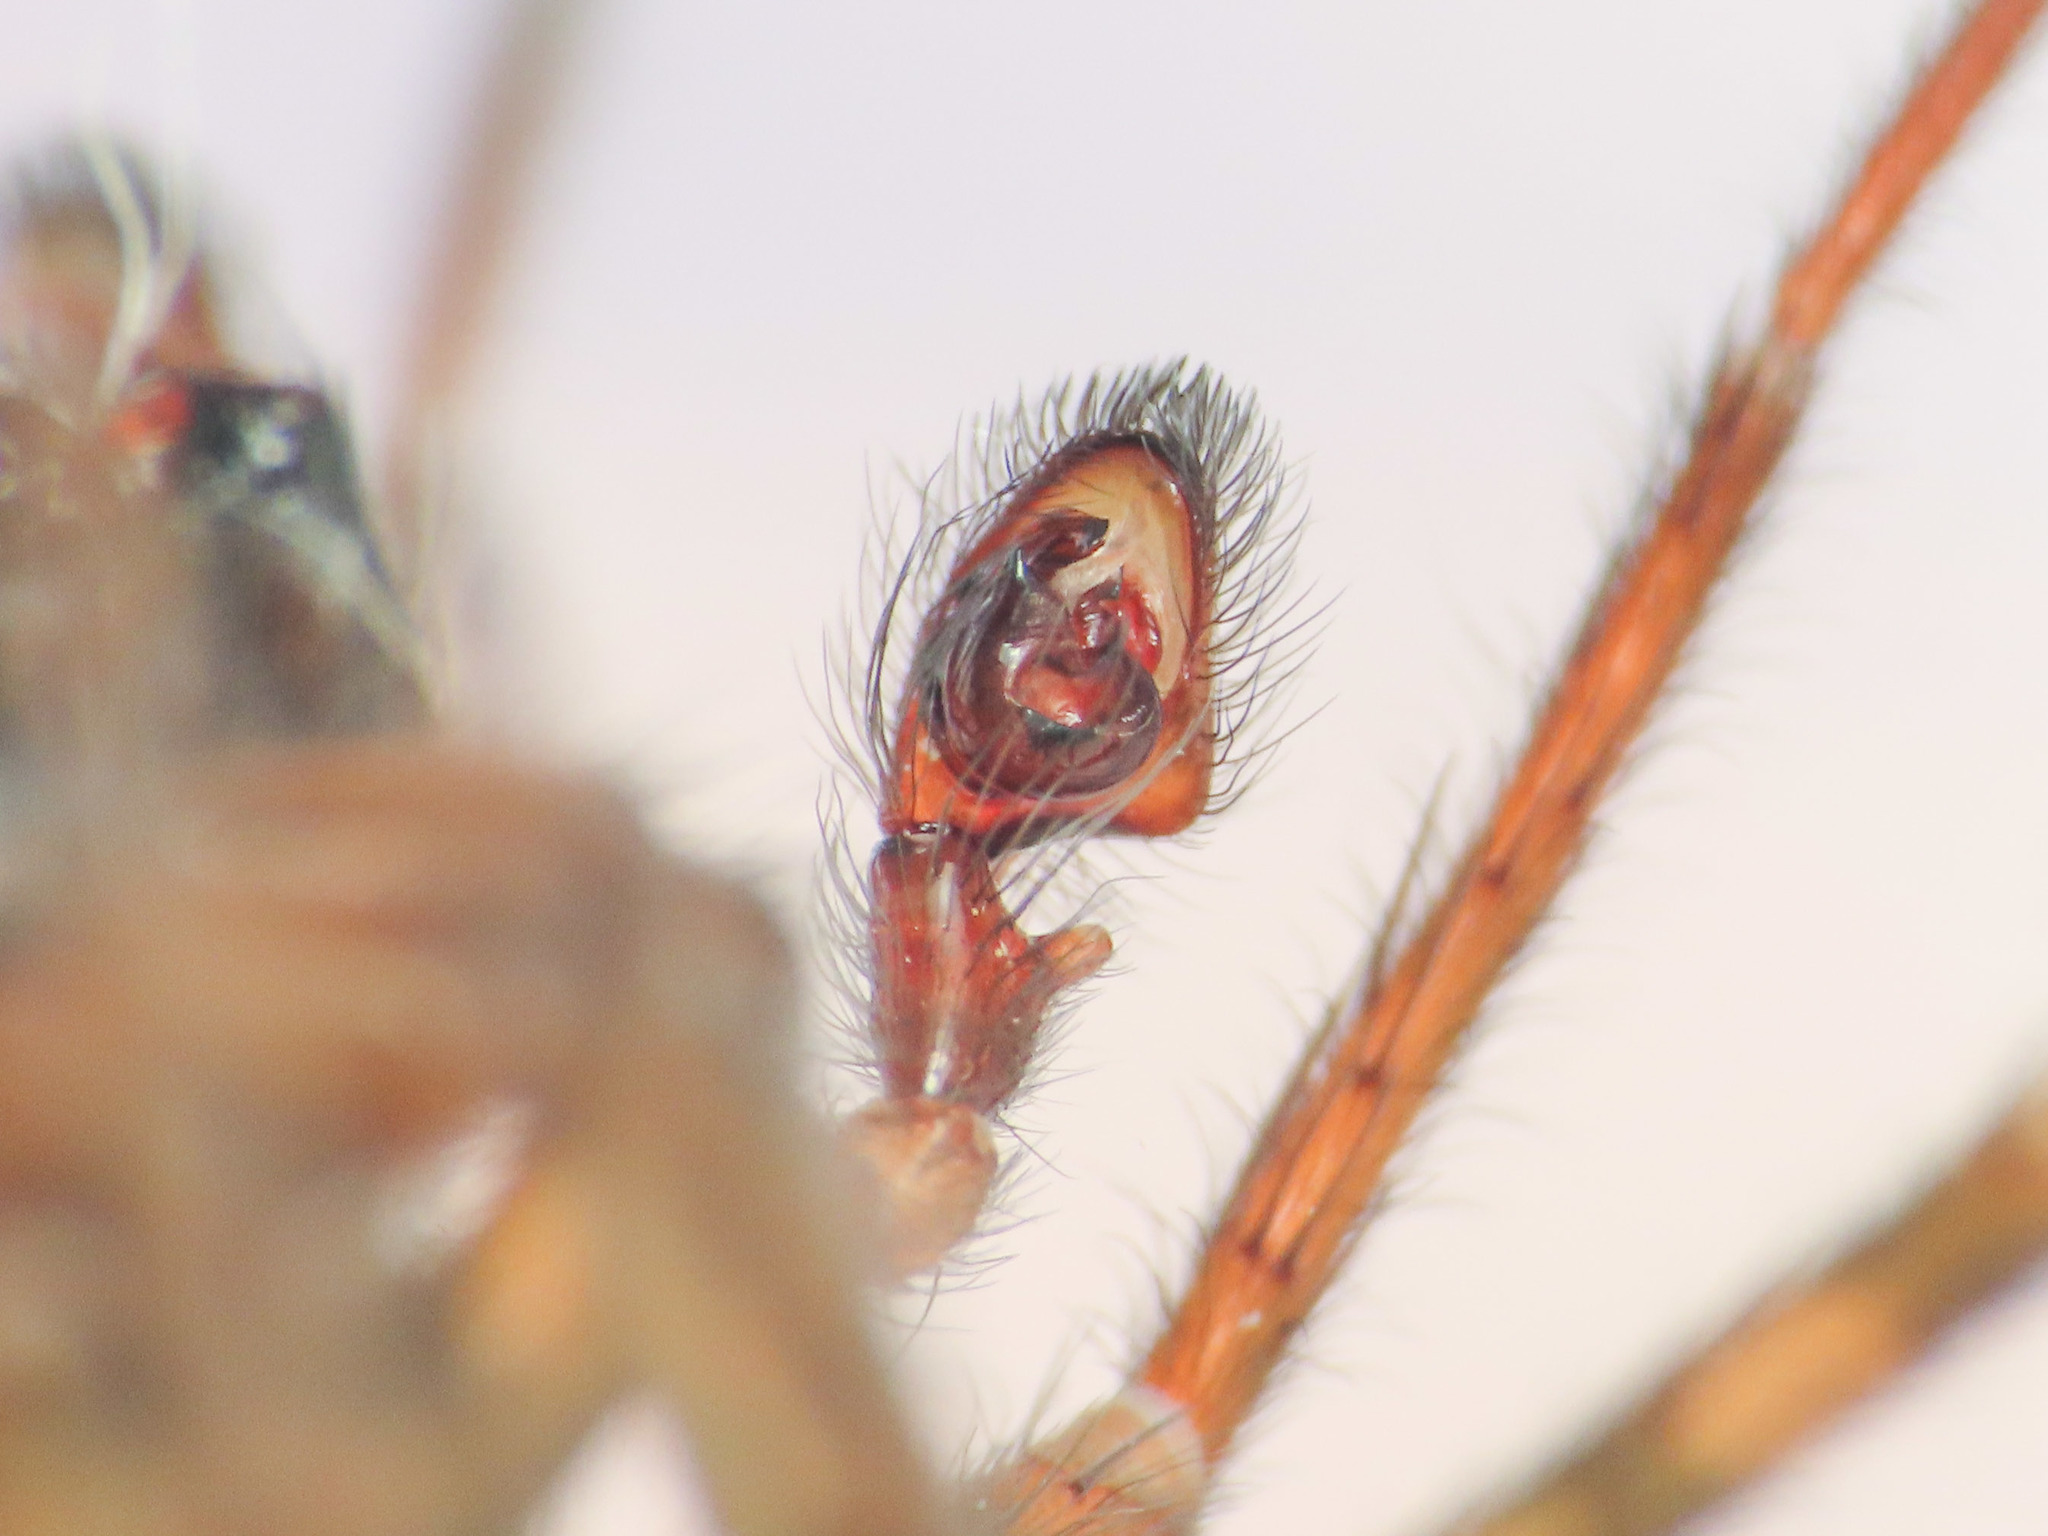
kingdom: Animalia
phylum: Arthropoda
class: Arachnida
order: Araneae
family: Amaurobiidae
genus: Amaurobius
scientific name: Amaurobius erberi
